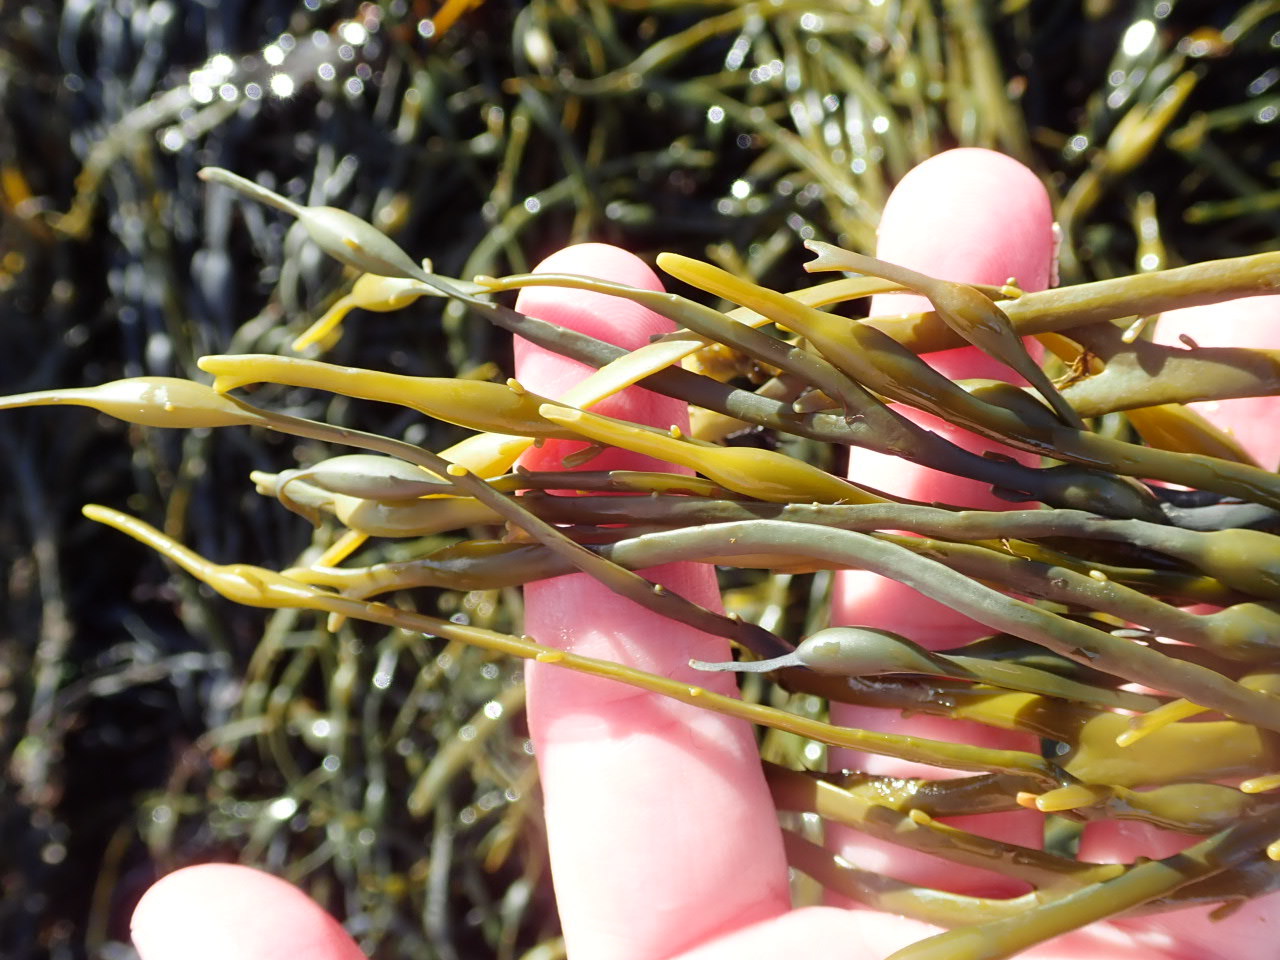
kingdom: Chromista
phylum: Ochrophyta
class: Phaeophyceae
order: Fucales
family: Fucaceae
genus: Ascophyllum
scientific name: Ascophyllum nodosum
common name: Knotted wrack
